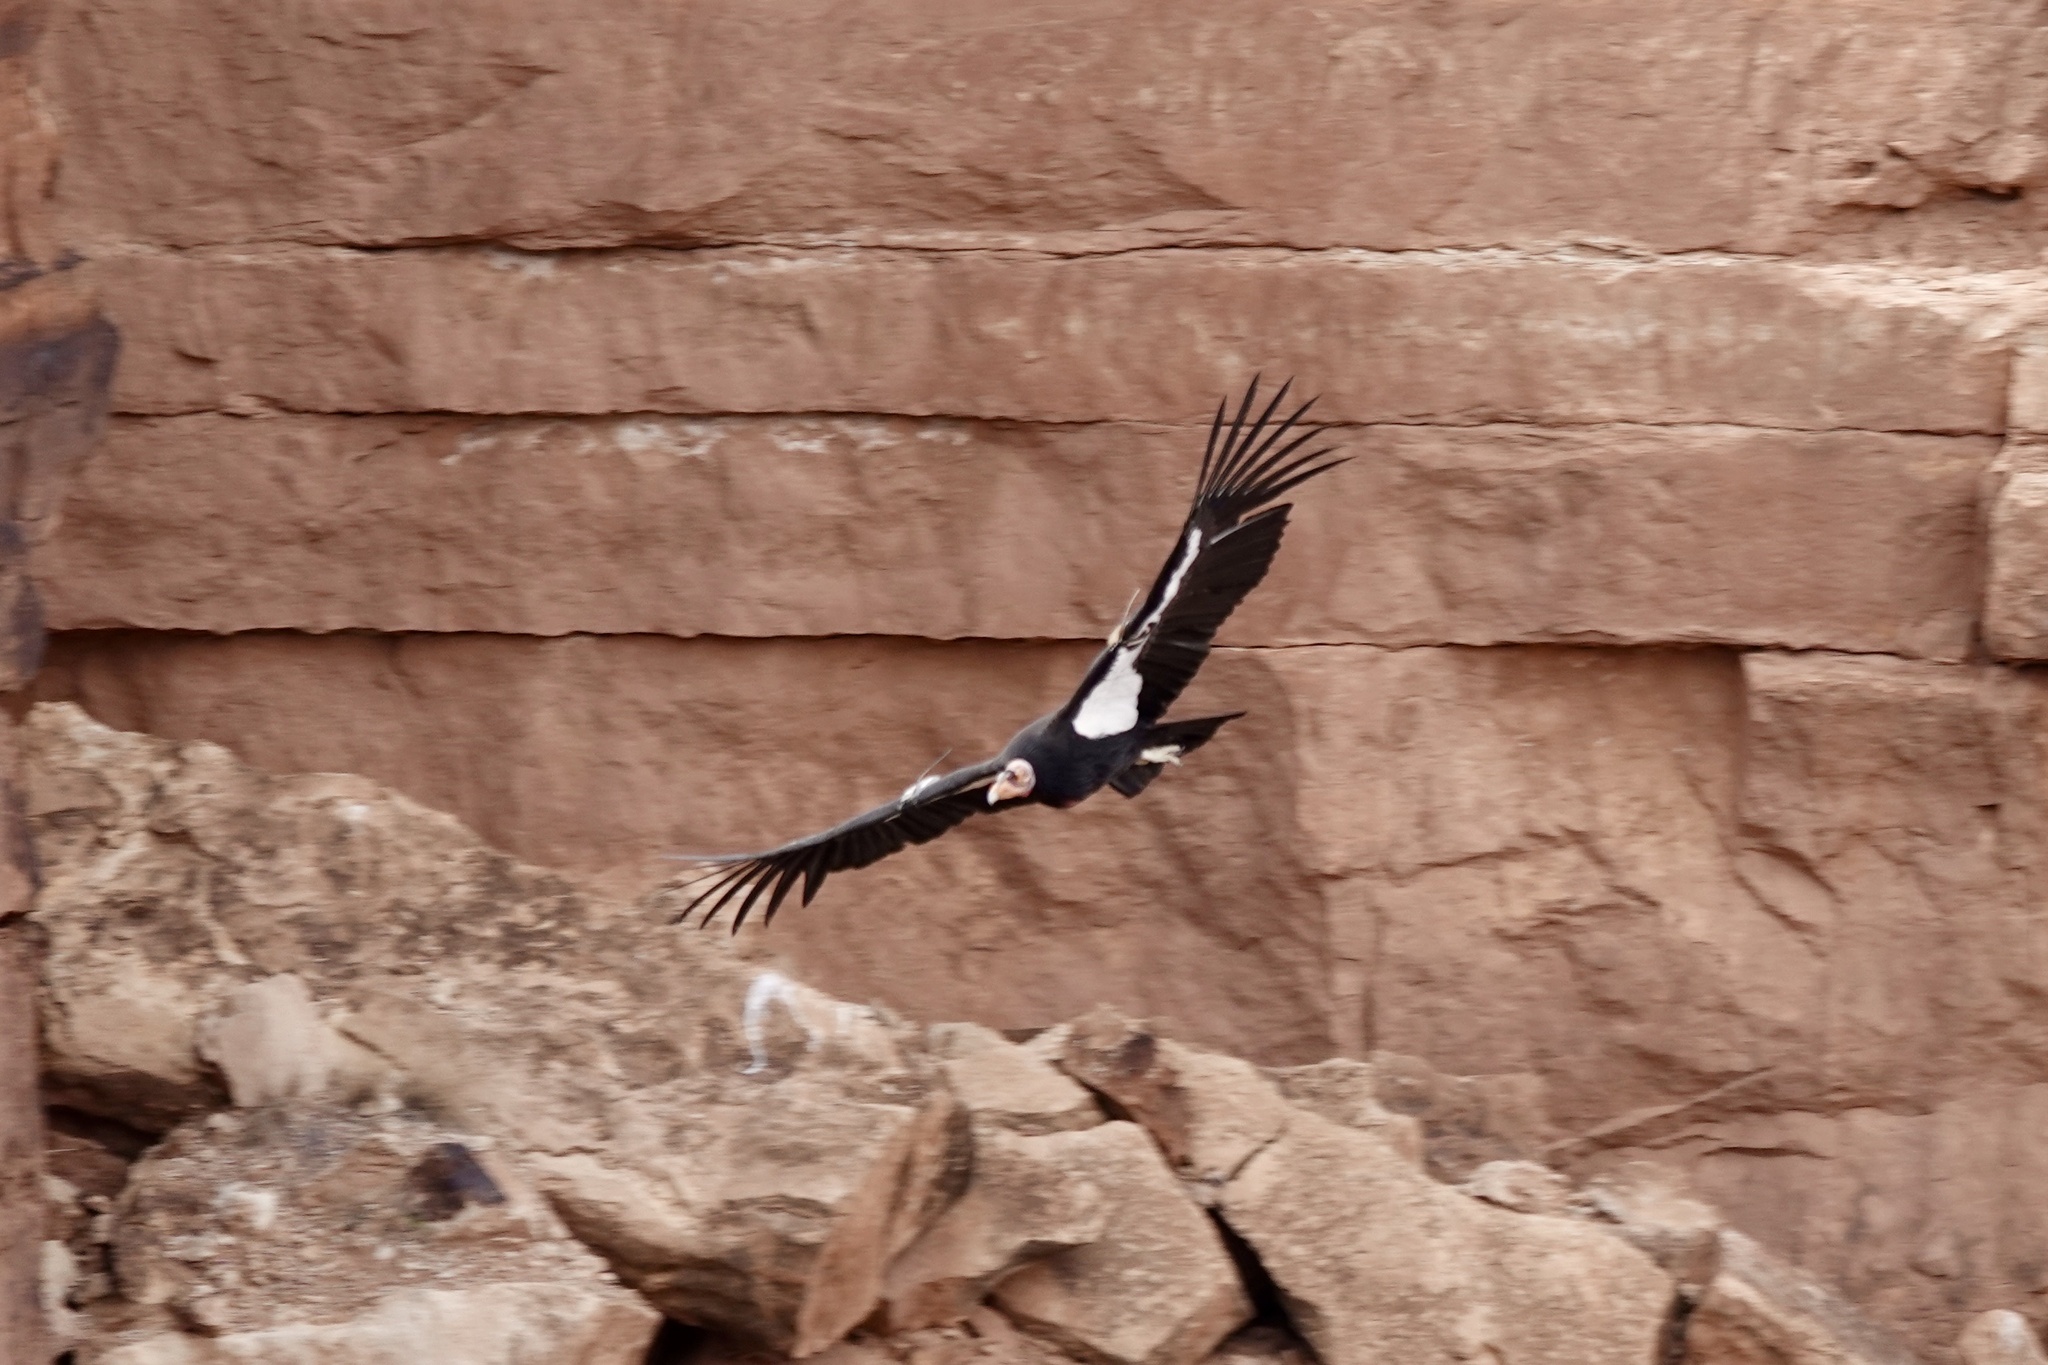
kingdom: Animalia
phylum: Chordata
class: Aves
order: Accipitriformes
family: Cathartidae
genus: Gymnogyps
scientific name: Gymnogyps californianus
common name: California condor
